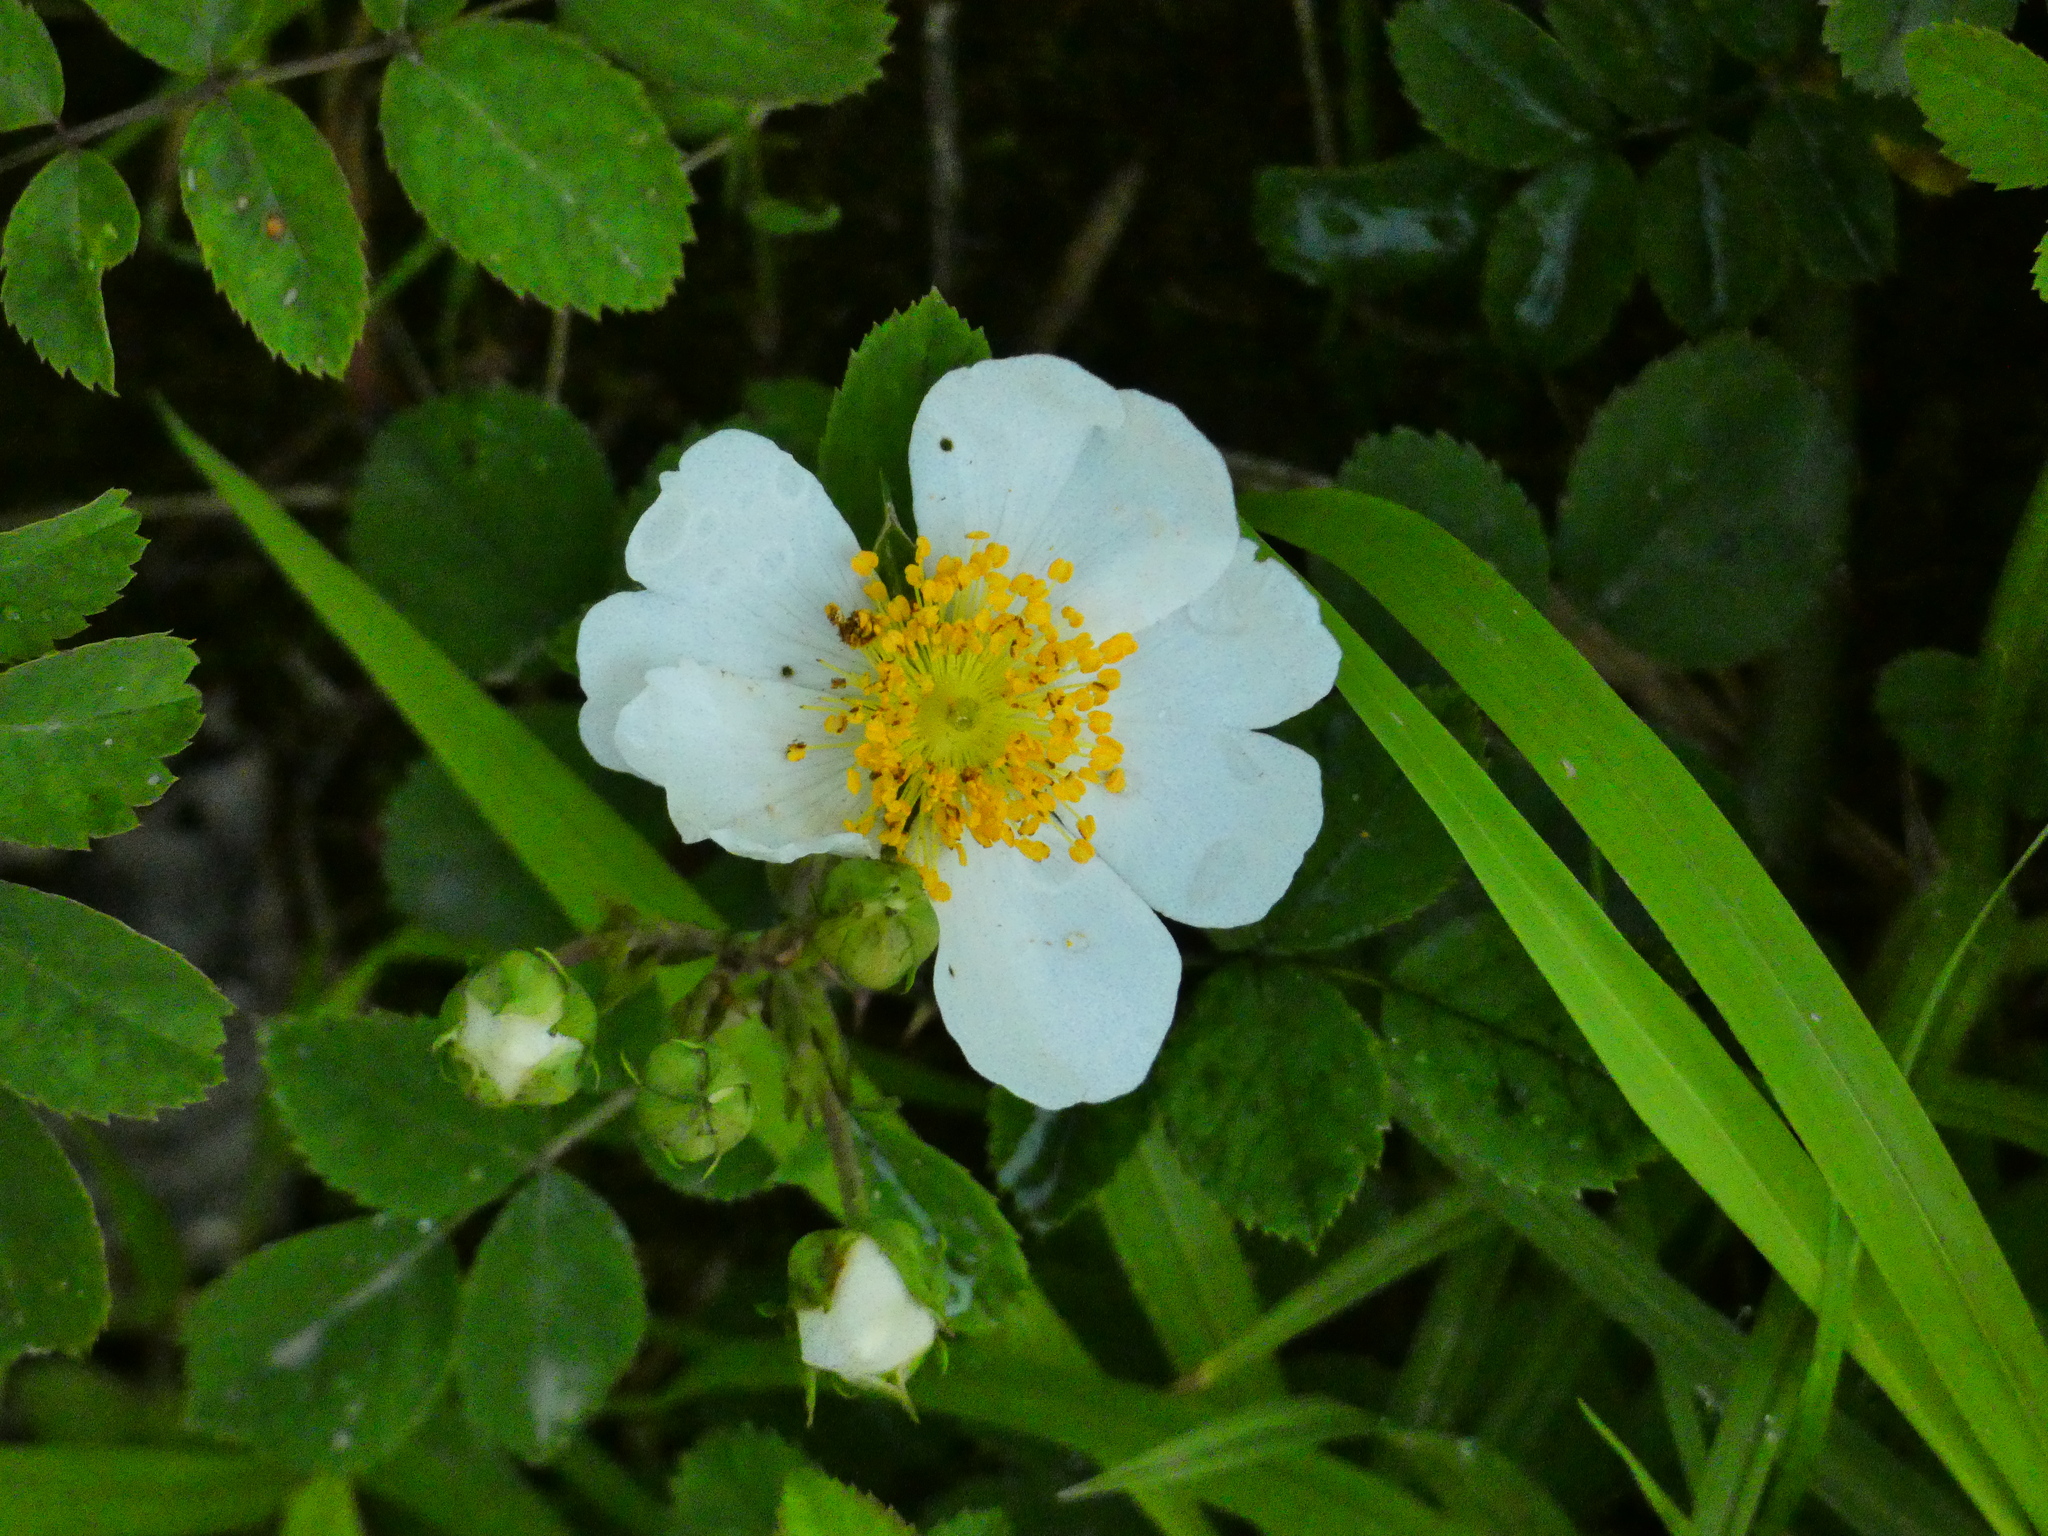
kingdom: Plantae
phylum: Tracheophyta
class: Magnoliopsida
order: Rosales
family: Rosaceae
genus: Rosa
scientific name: Rosa arvensis
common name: Field rose
